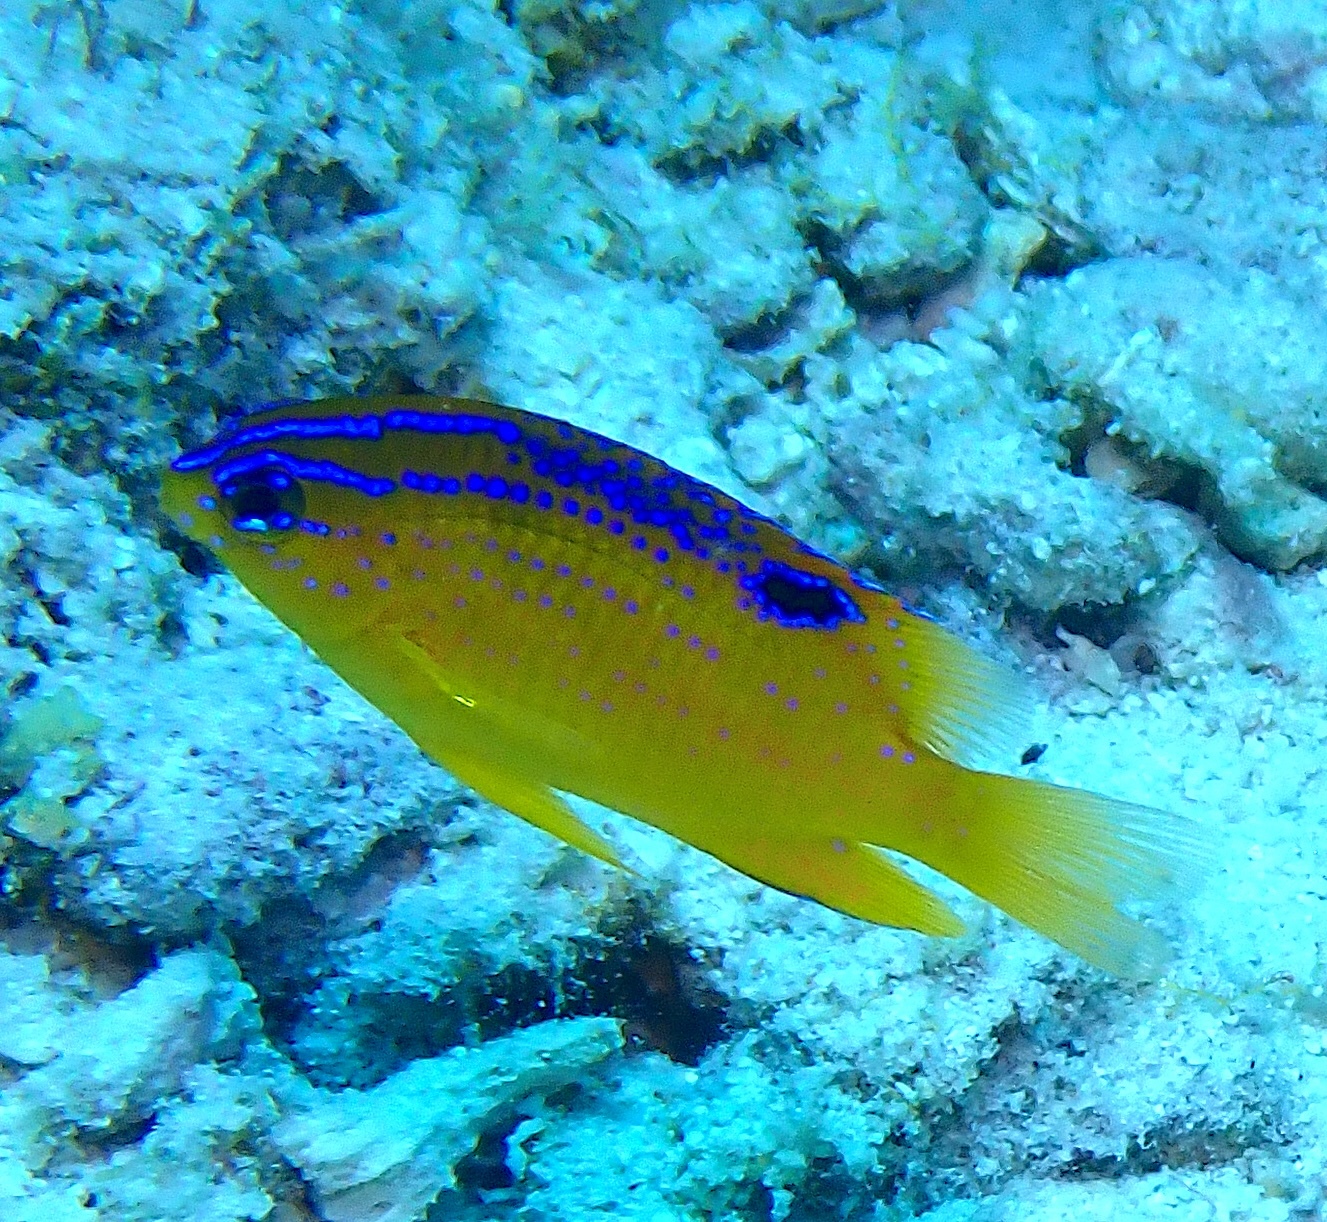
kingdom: Animalia
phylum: Chordata
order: Perciformes
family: Pomacentridae
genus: Stegastes
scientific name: Stegastes diencaeus
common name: Longfin damselfish
